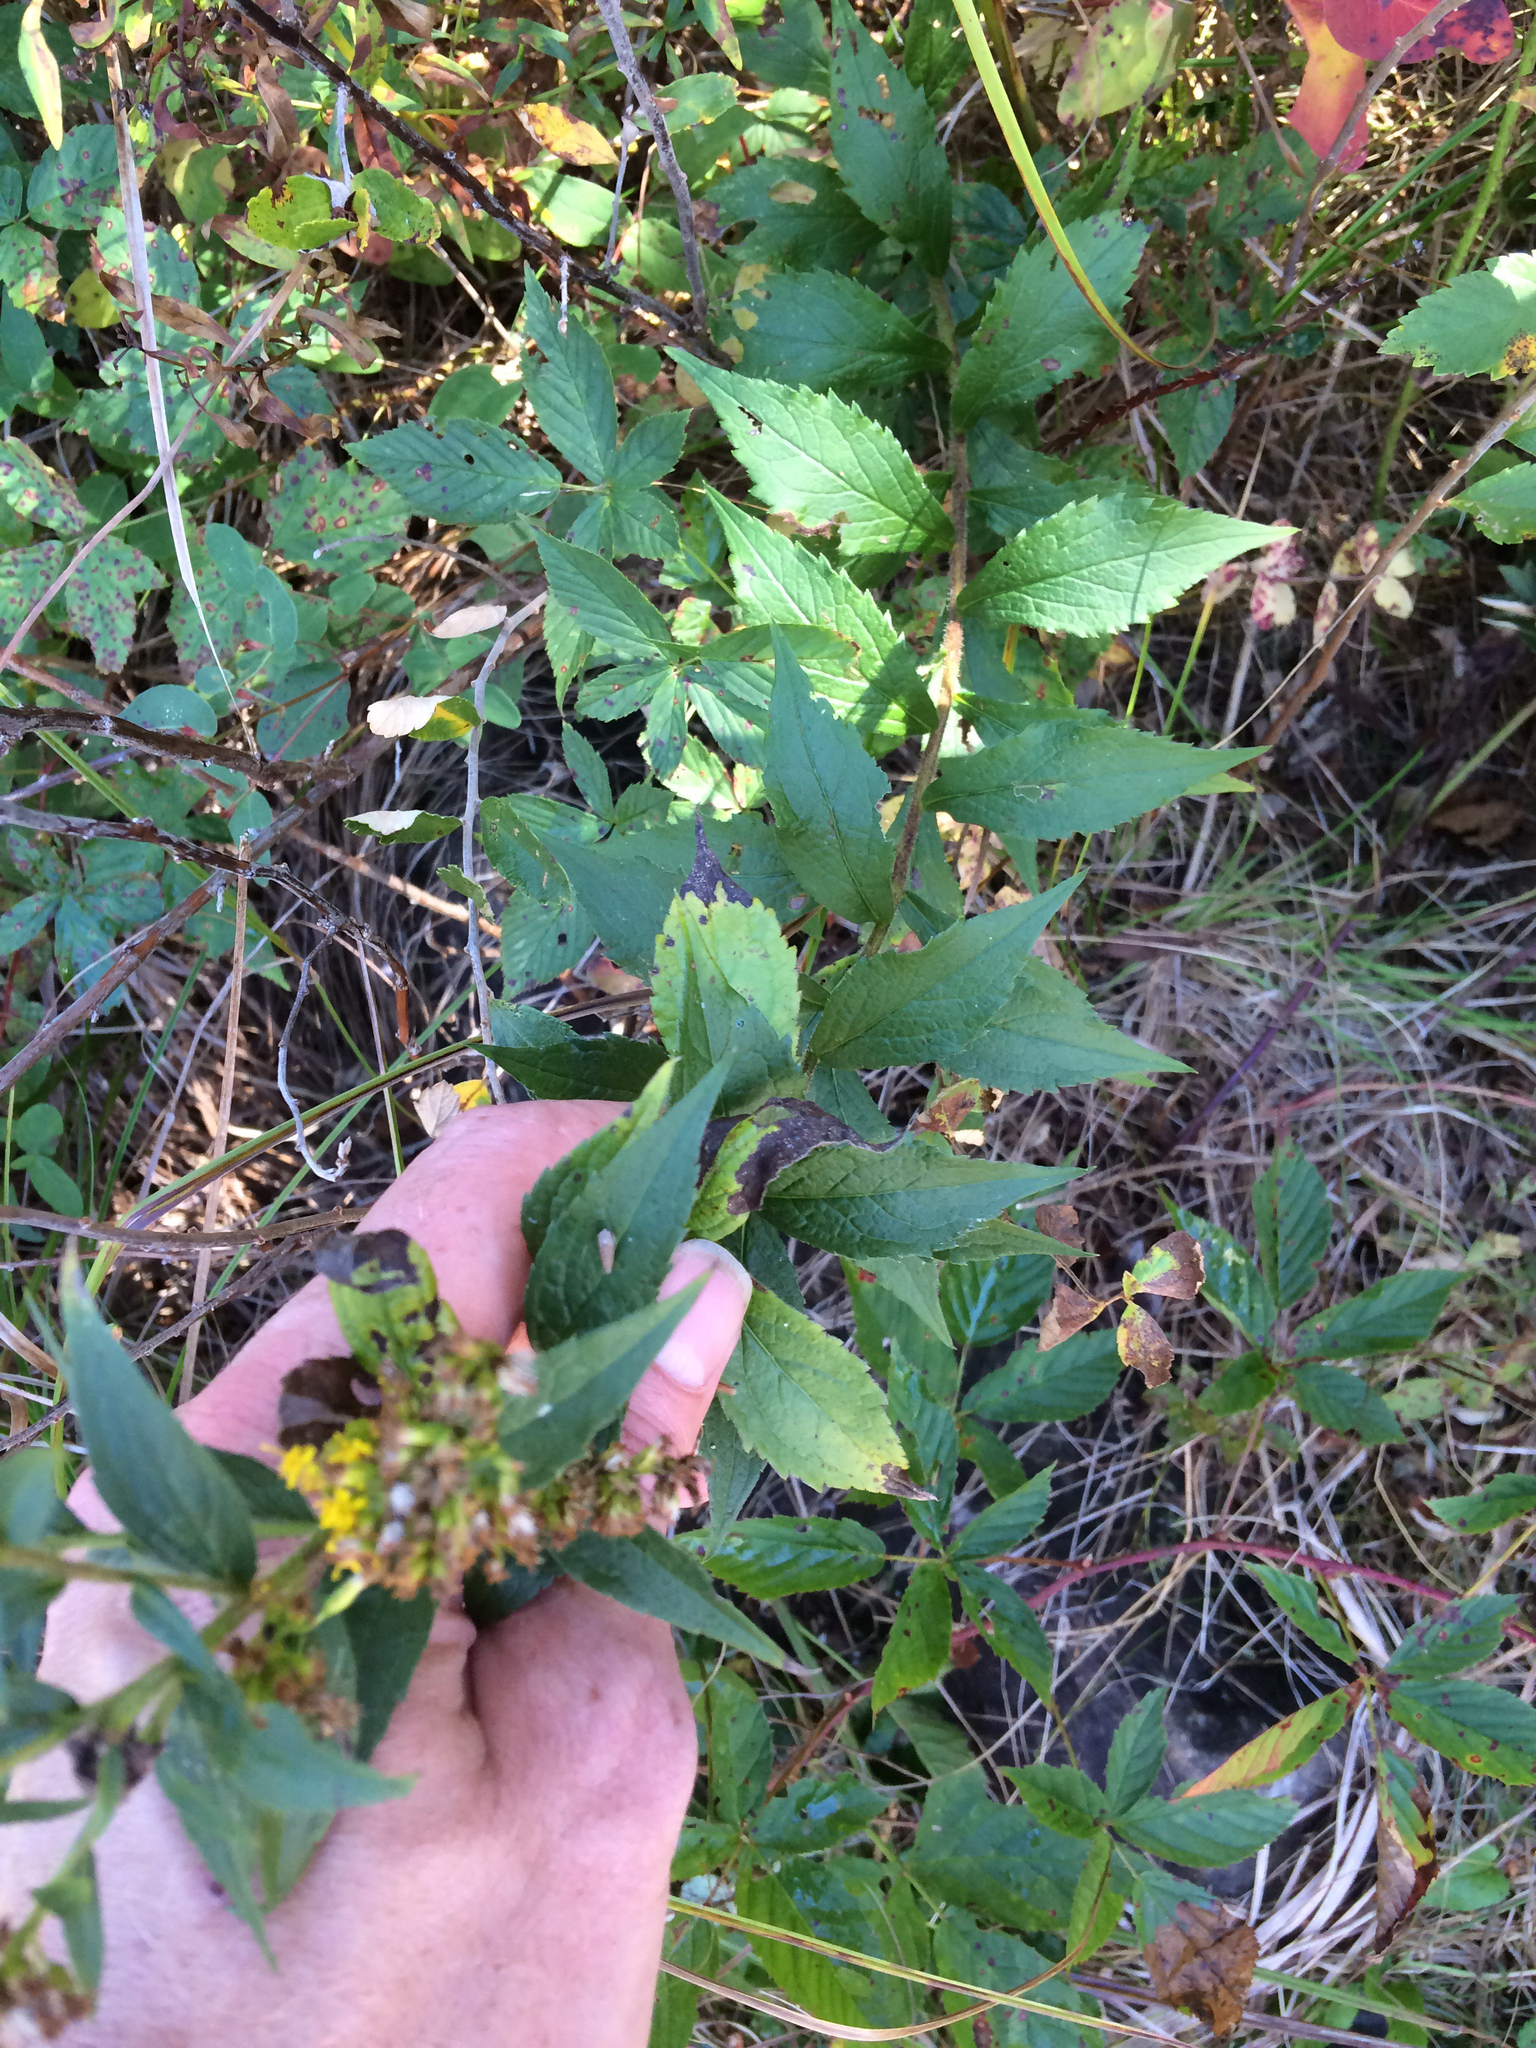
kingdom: Plantae
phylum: Tracheophyta
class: Magnoliopsida
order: Asterales
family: Asteraceae
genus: Solidago
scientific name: Solidago rugosa
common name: Rough-stemmed goldenrod
